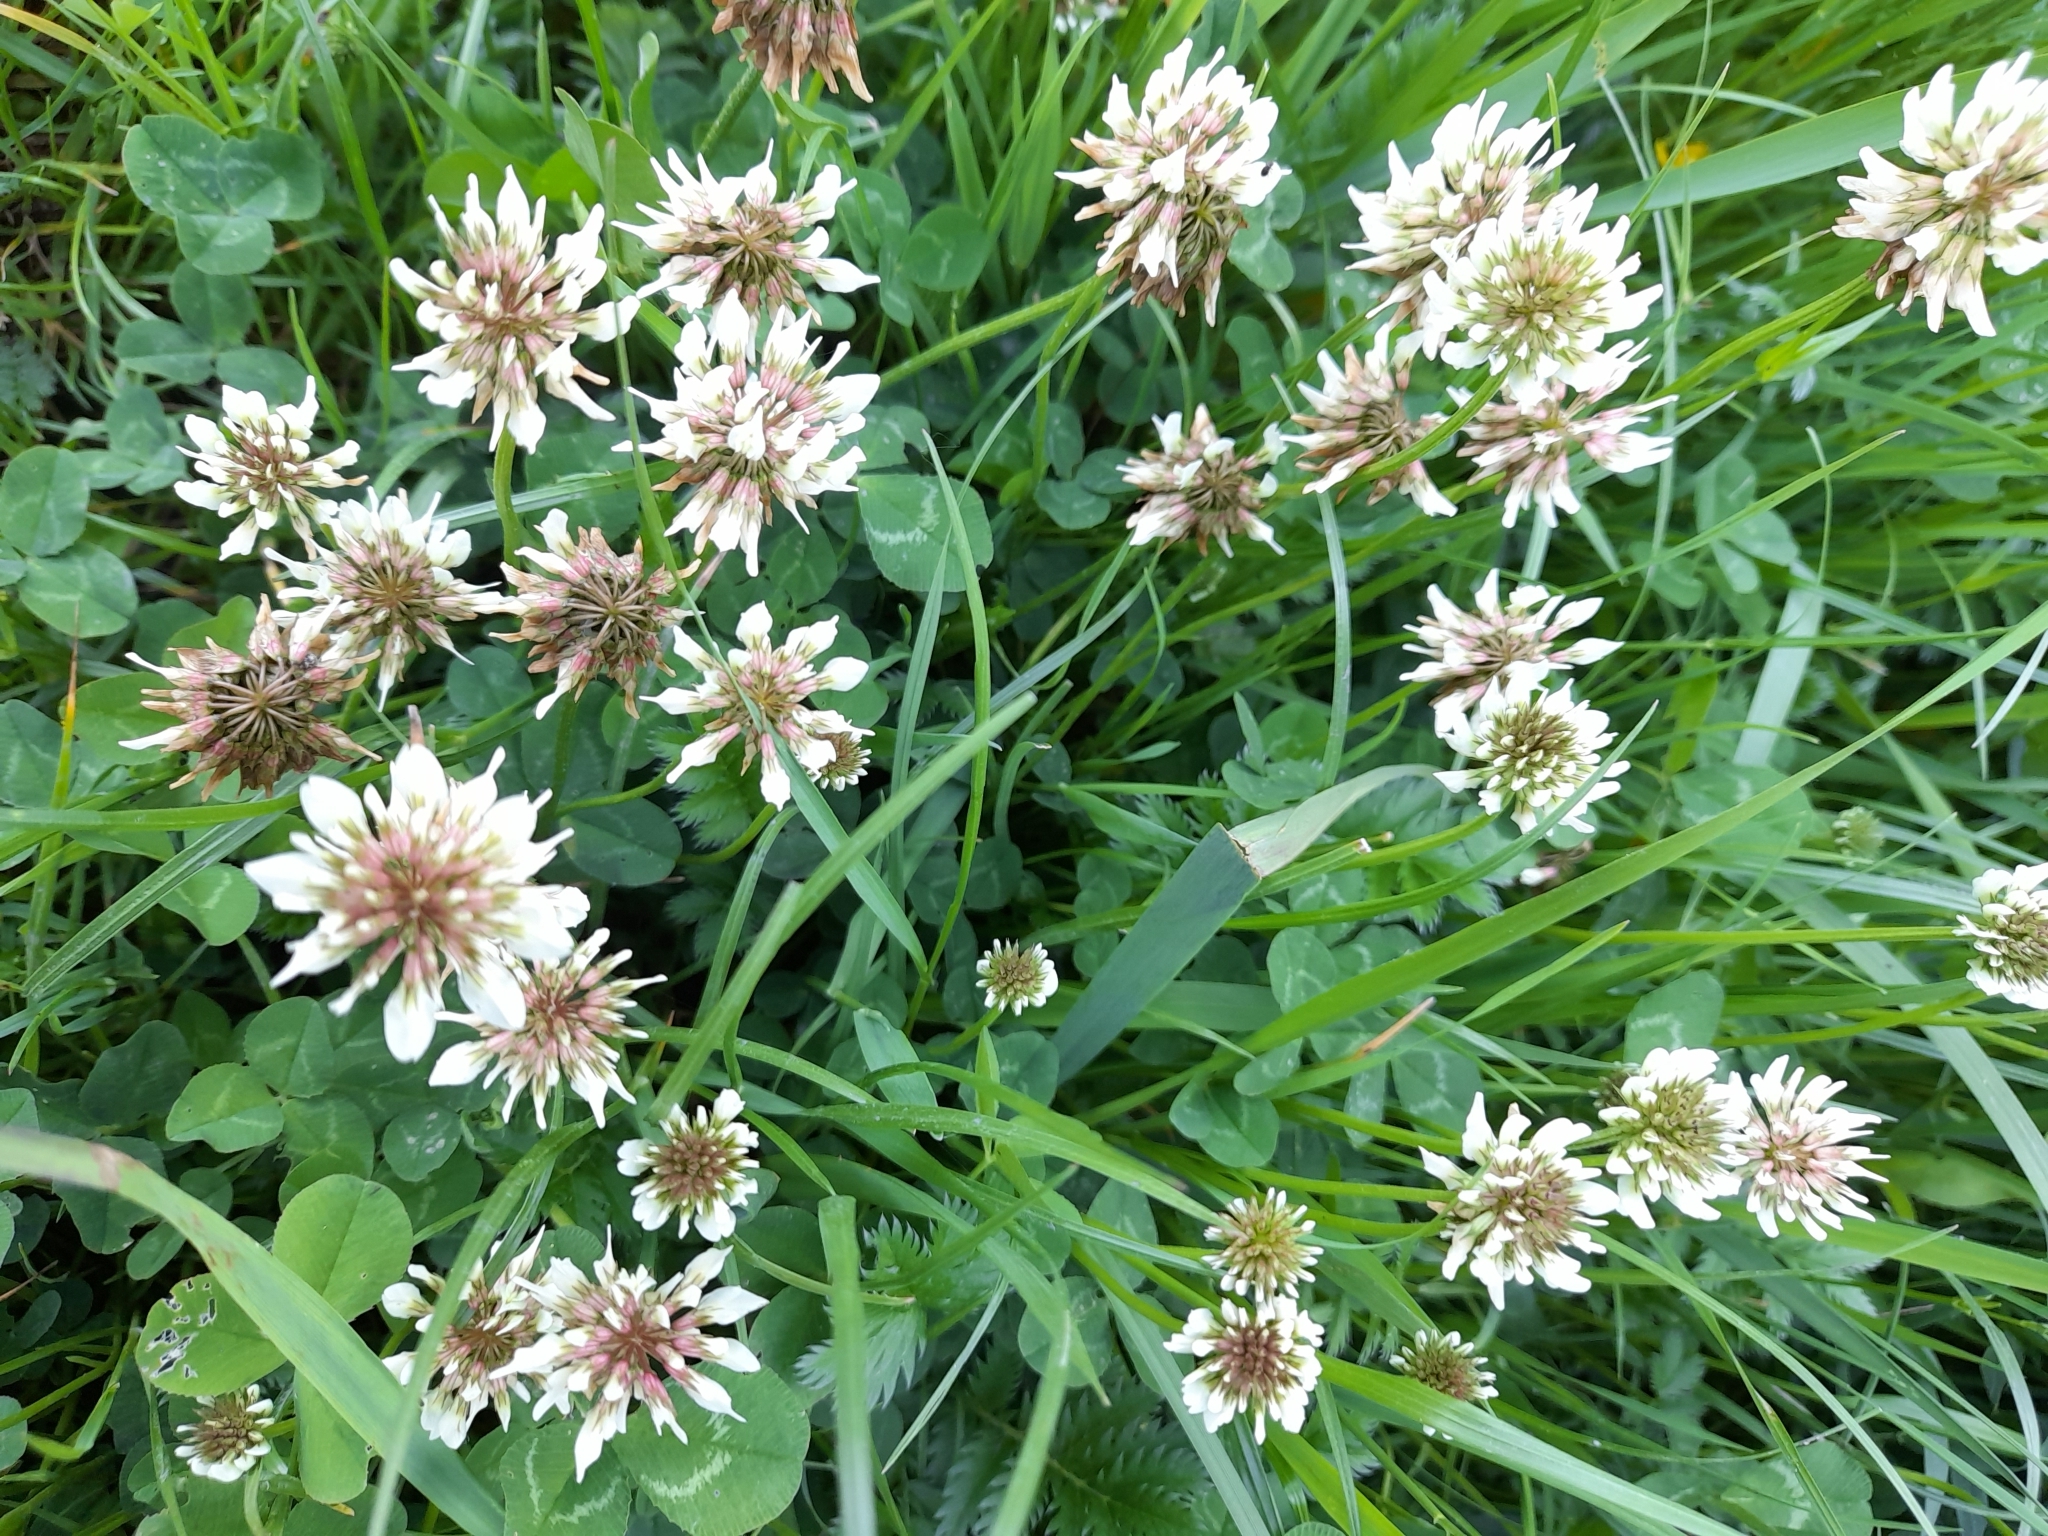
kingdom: Plantae
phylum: Tracheophyta
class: Magnoliopsida
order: Fabales
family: Fabaceae
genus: Trifolium
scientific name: Trifolium repens
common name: White clover
